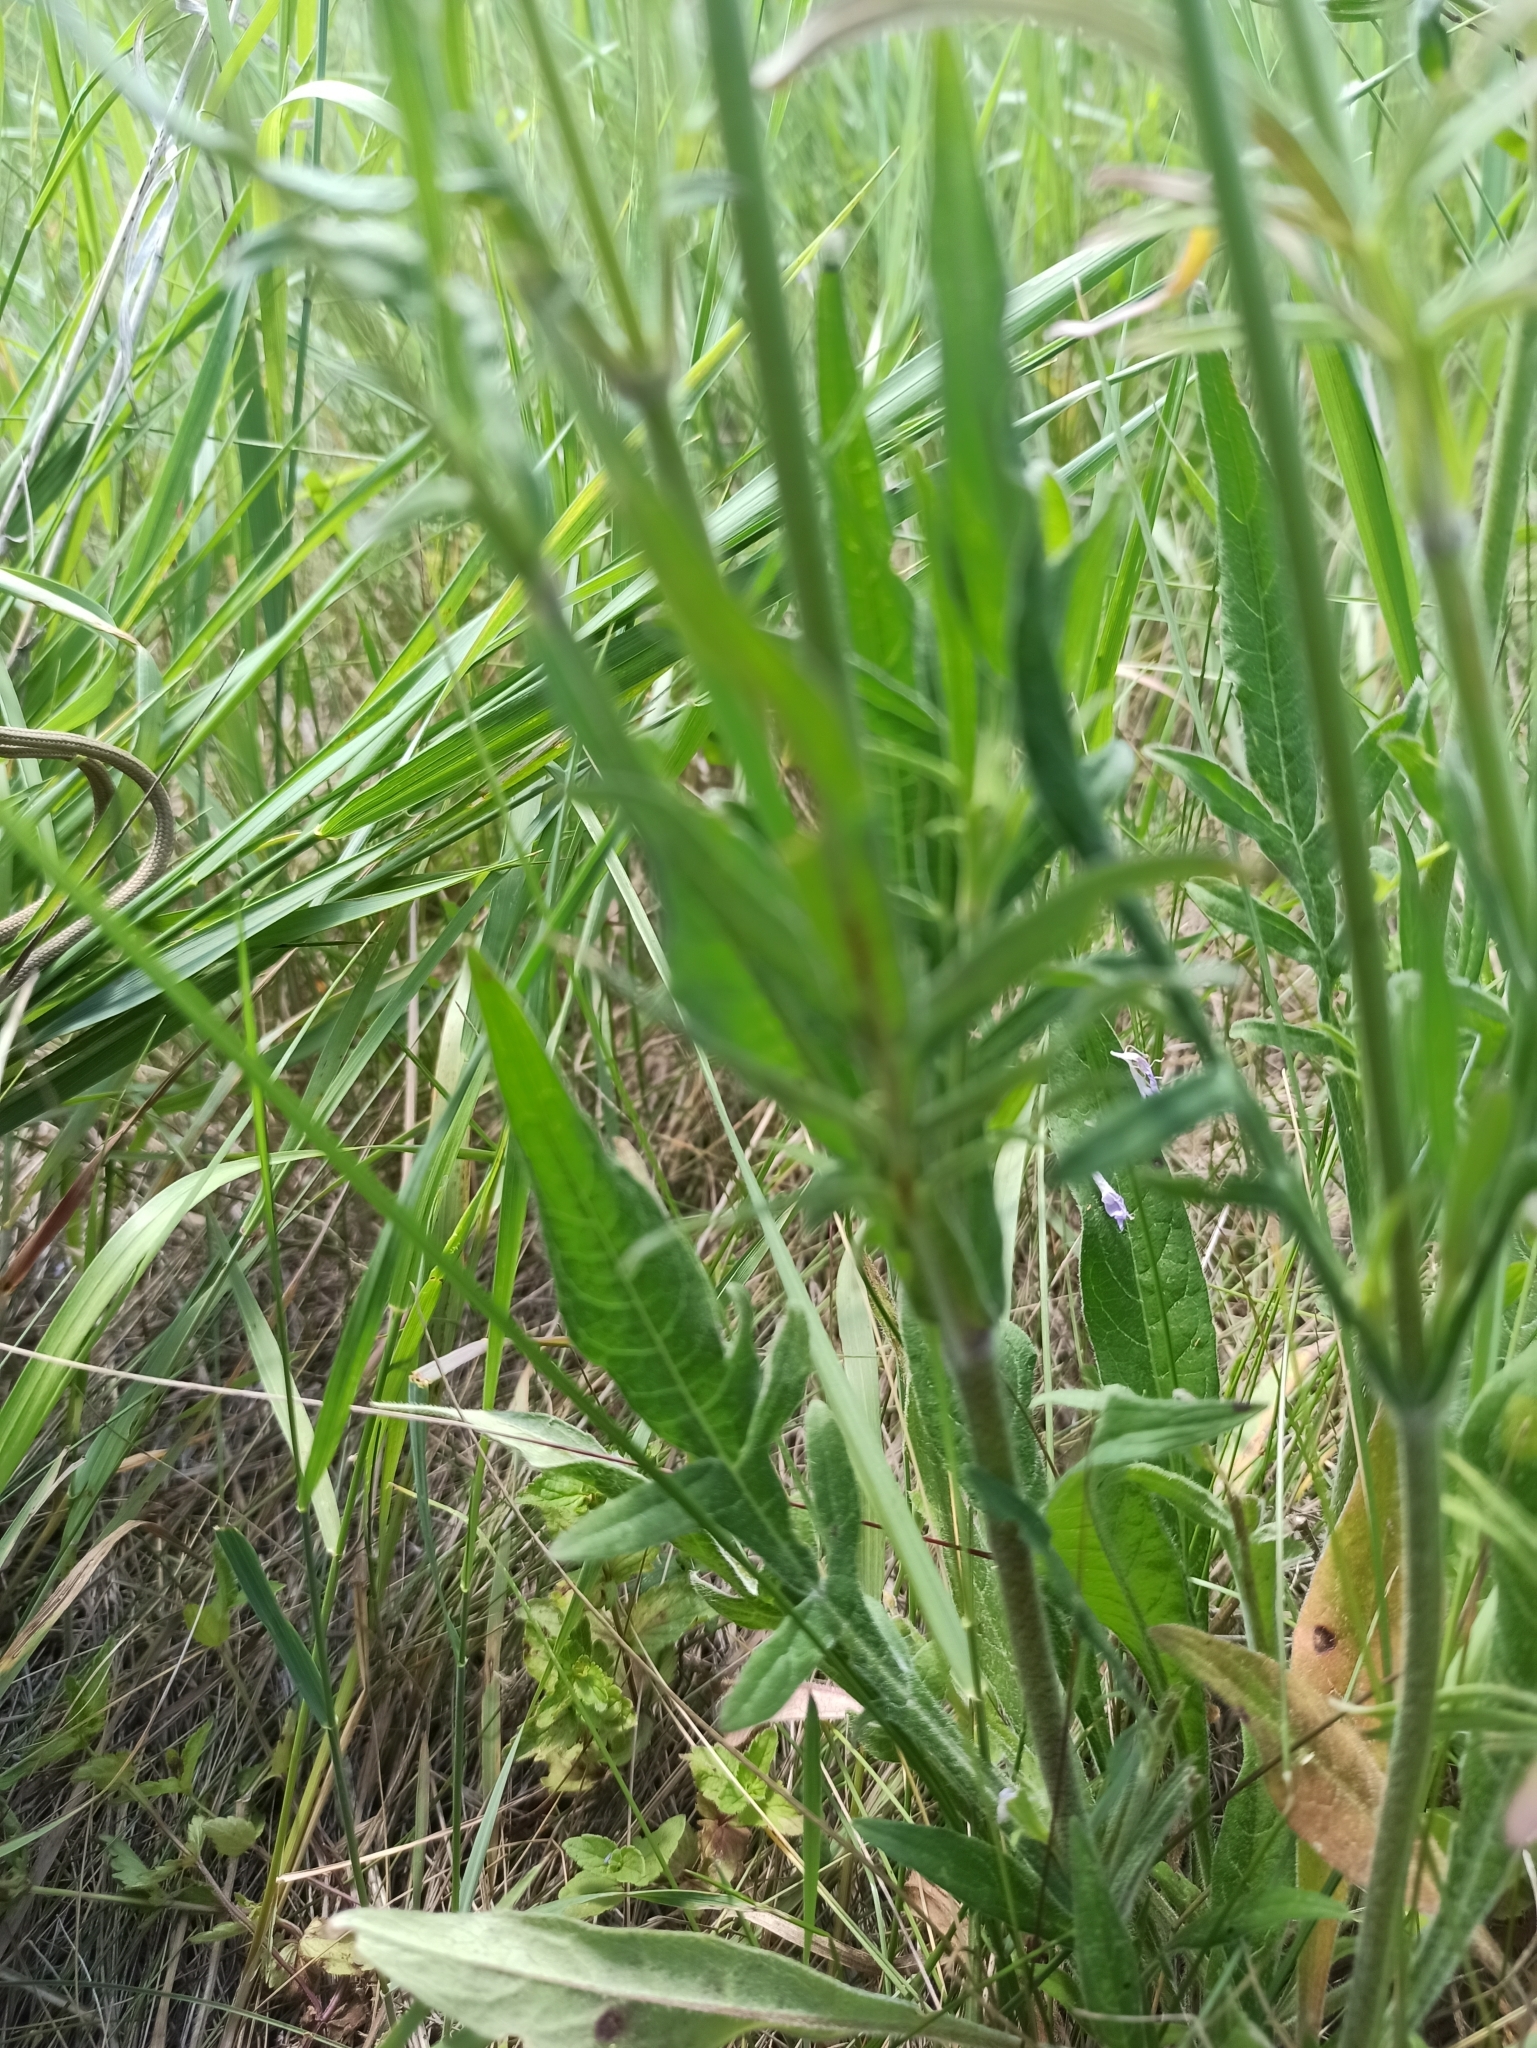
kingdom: Plantae
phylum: Tracheophyta
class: Magnoliopsida
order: Dipsacales
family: Caprifoliaceae
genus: Knautia
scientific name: Knautia arvensis
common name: Field scabiosa
